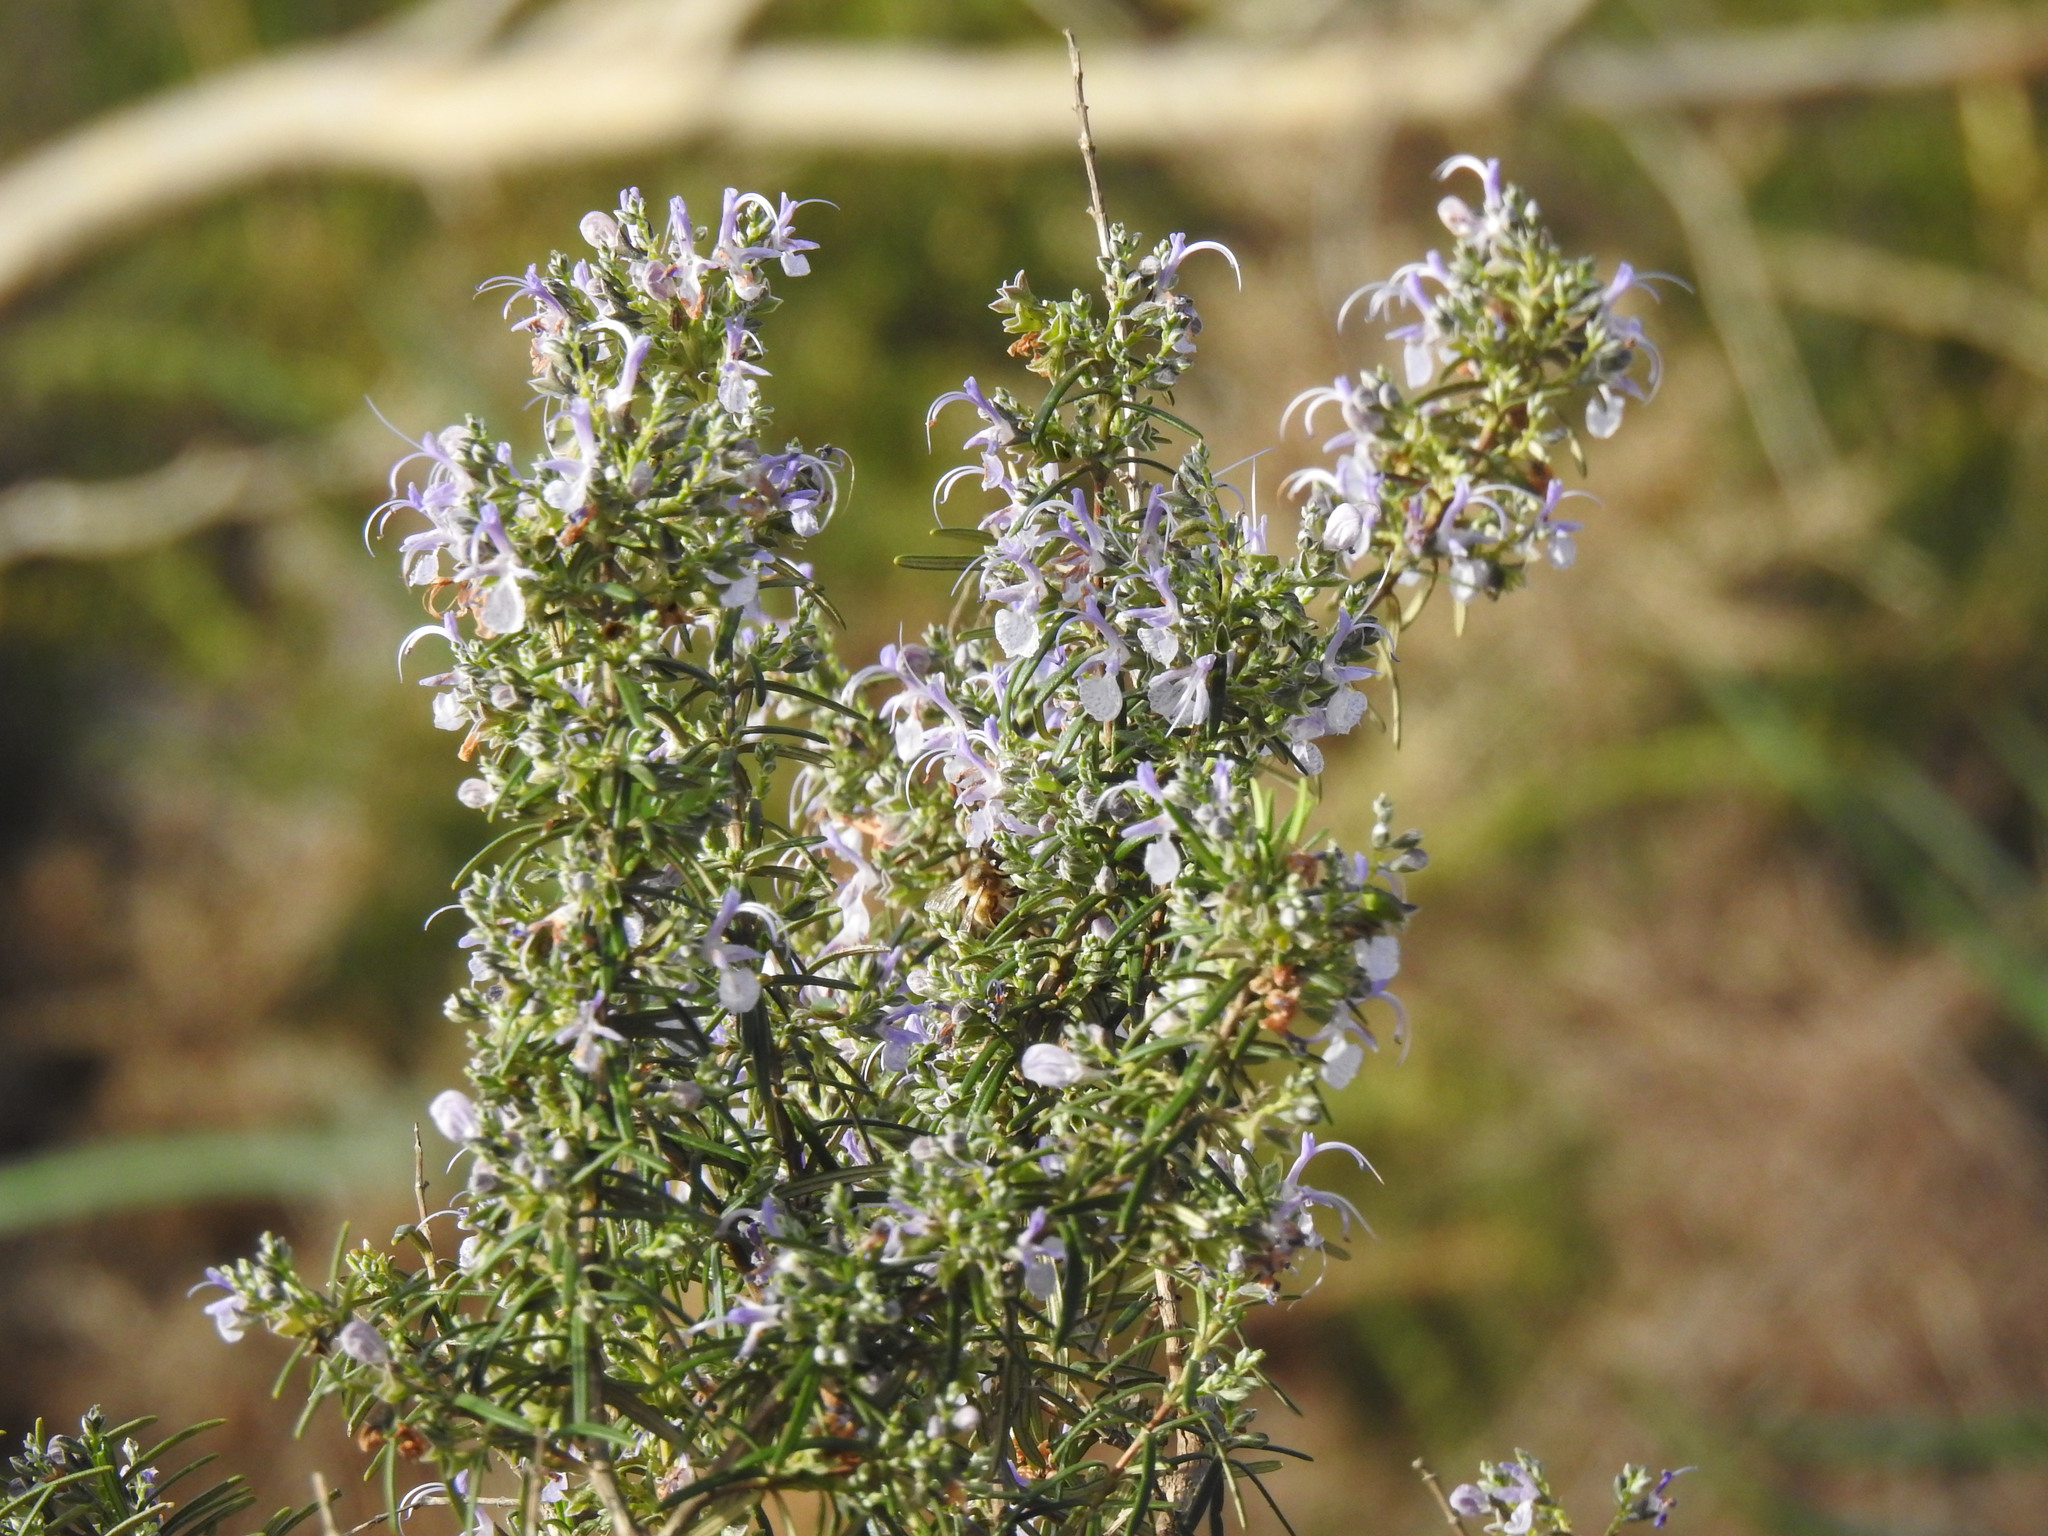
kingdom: Plantae
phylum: Tracheophyta
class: Magnoliopsida
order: Lamiales
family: Lamiaceae
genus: Salvia
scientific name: Salvia rosmarinus
